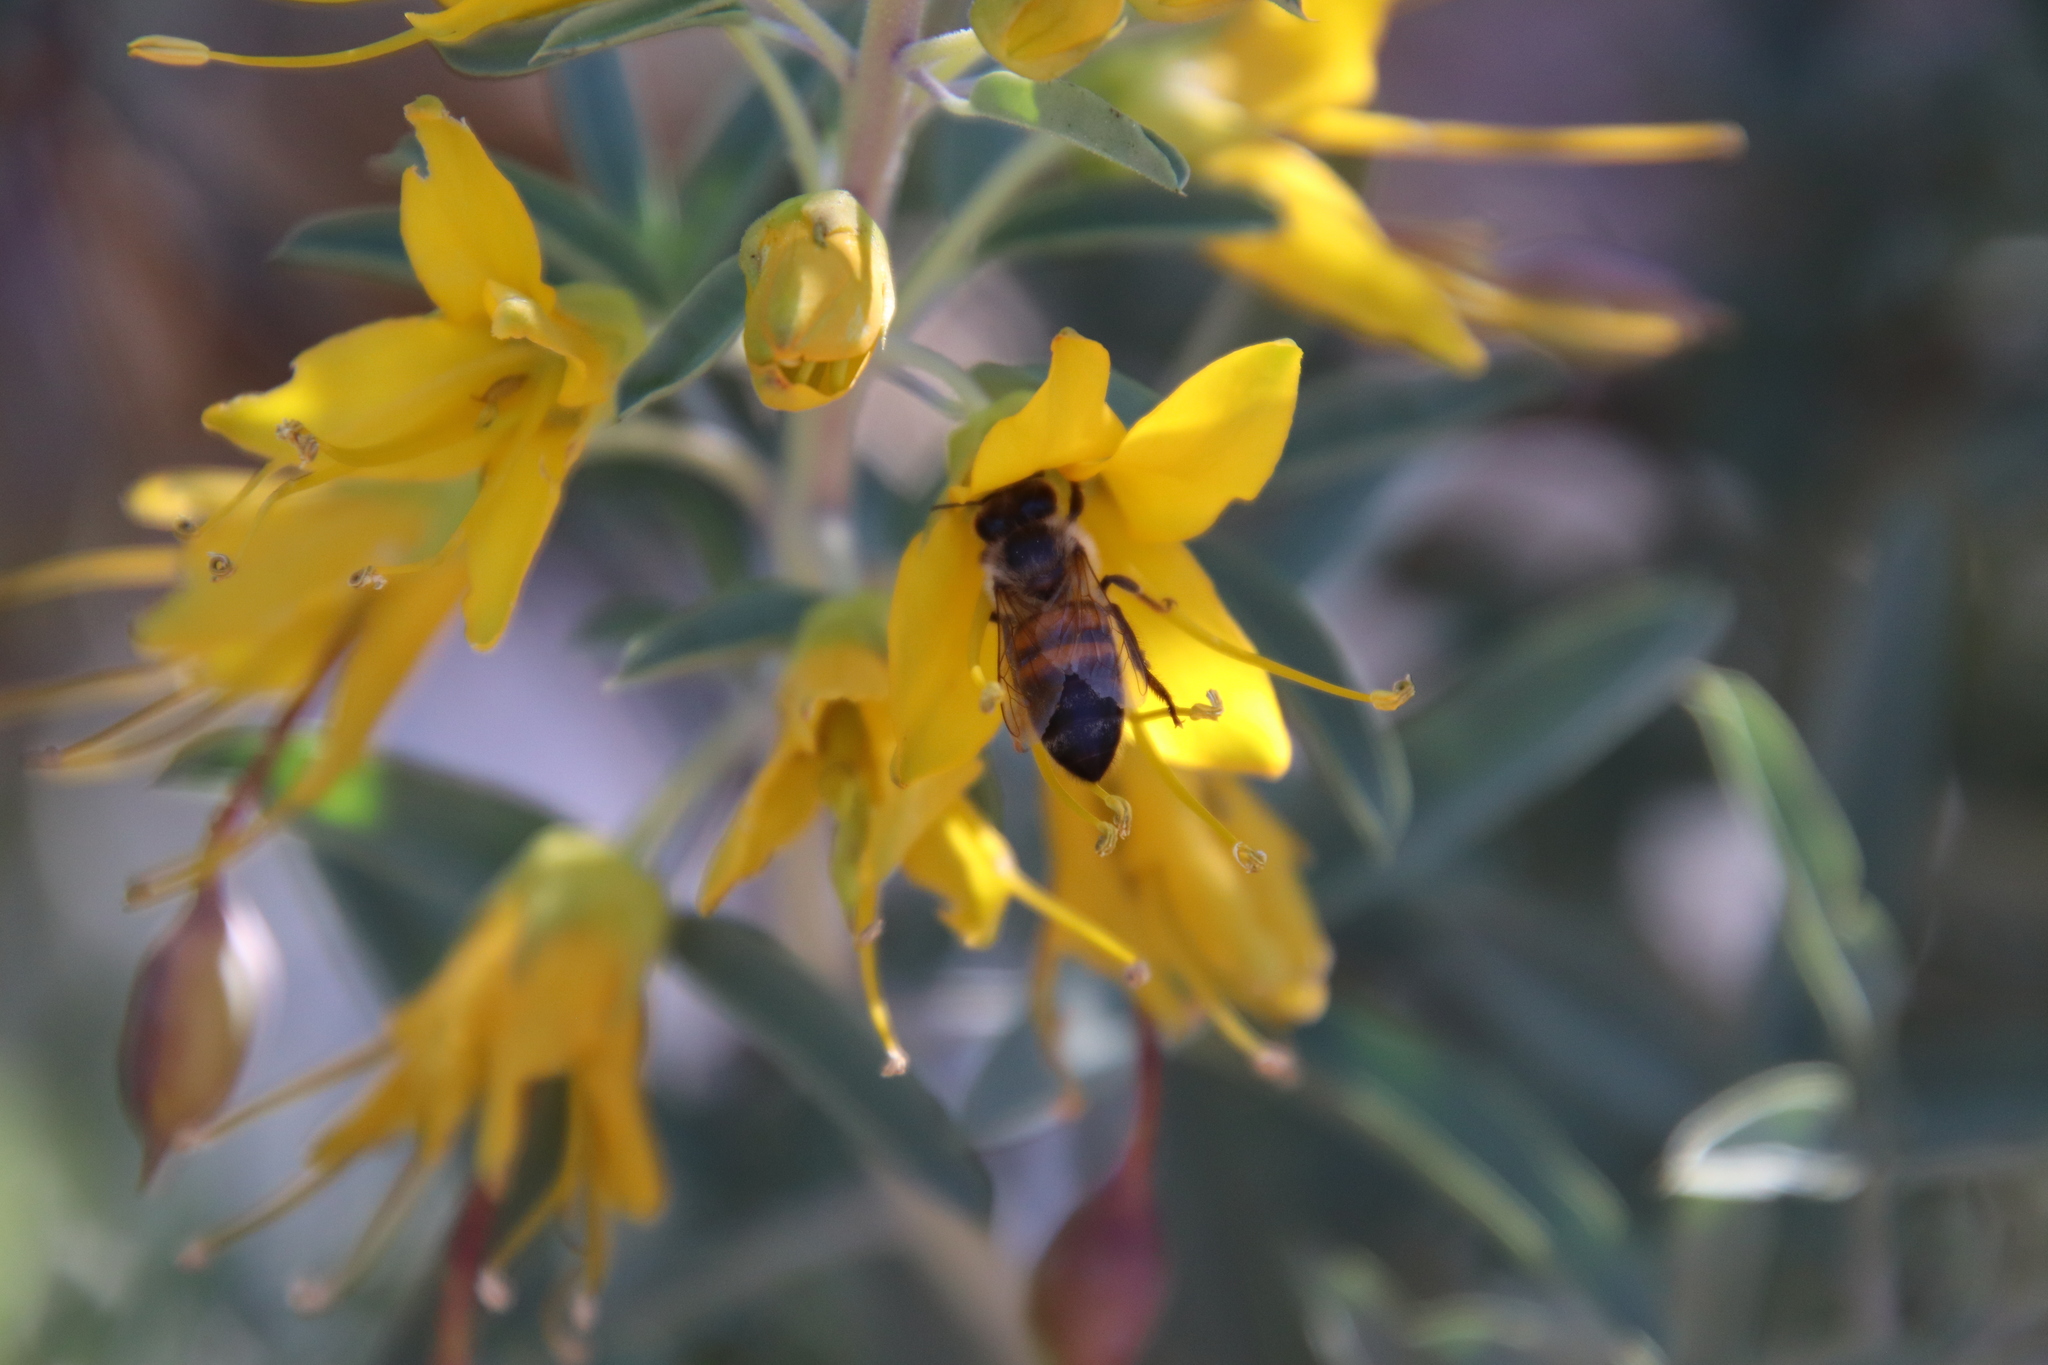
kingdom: Animalia
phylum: Arthropoda
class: Insecta
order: Hymenoptera
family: Apidae
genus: Apis
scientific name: Apis mellifera
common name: Honey bee
